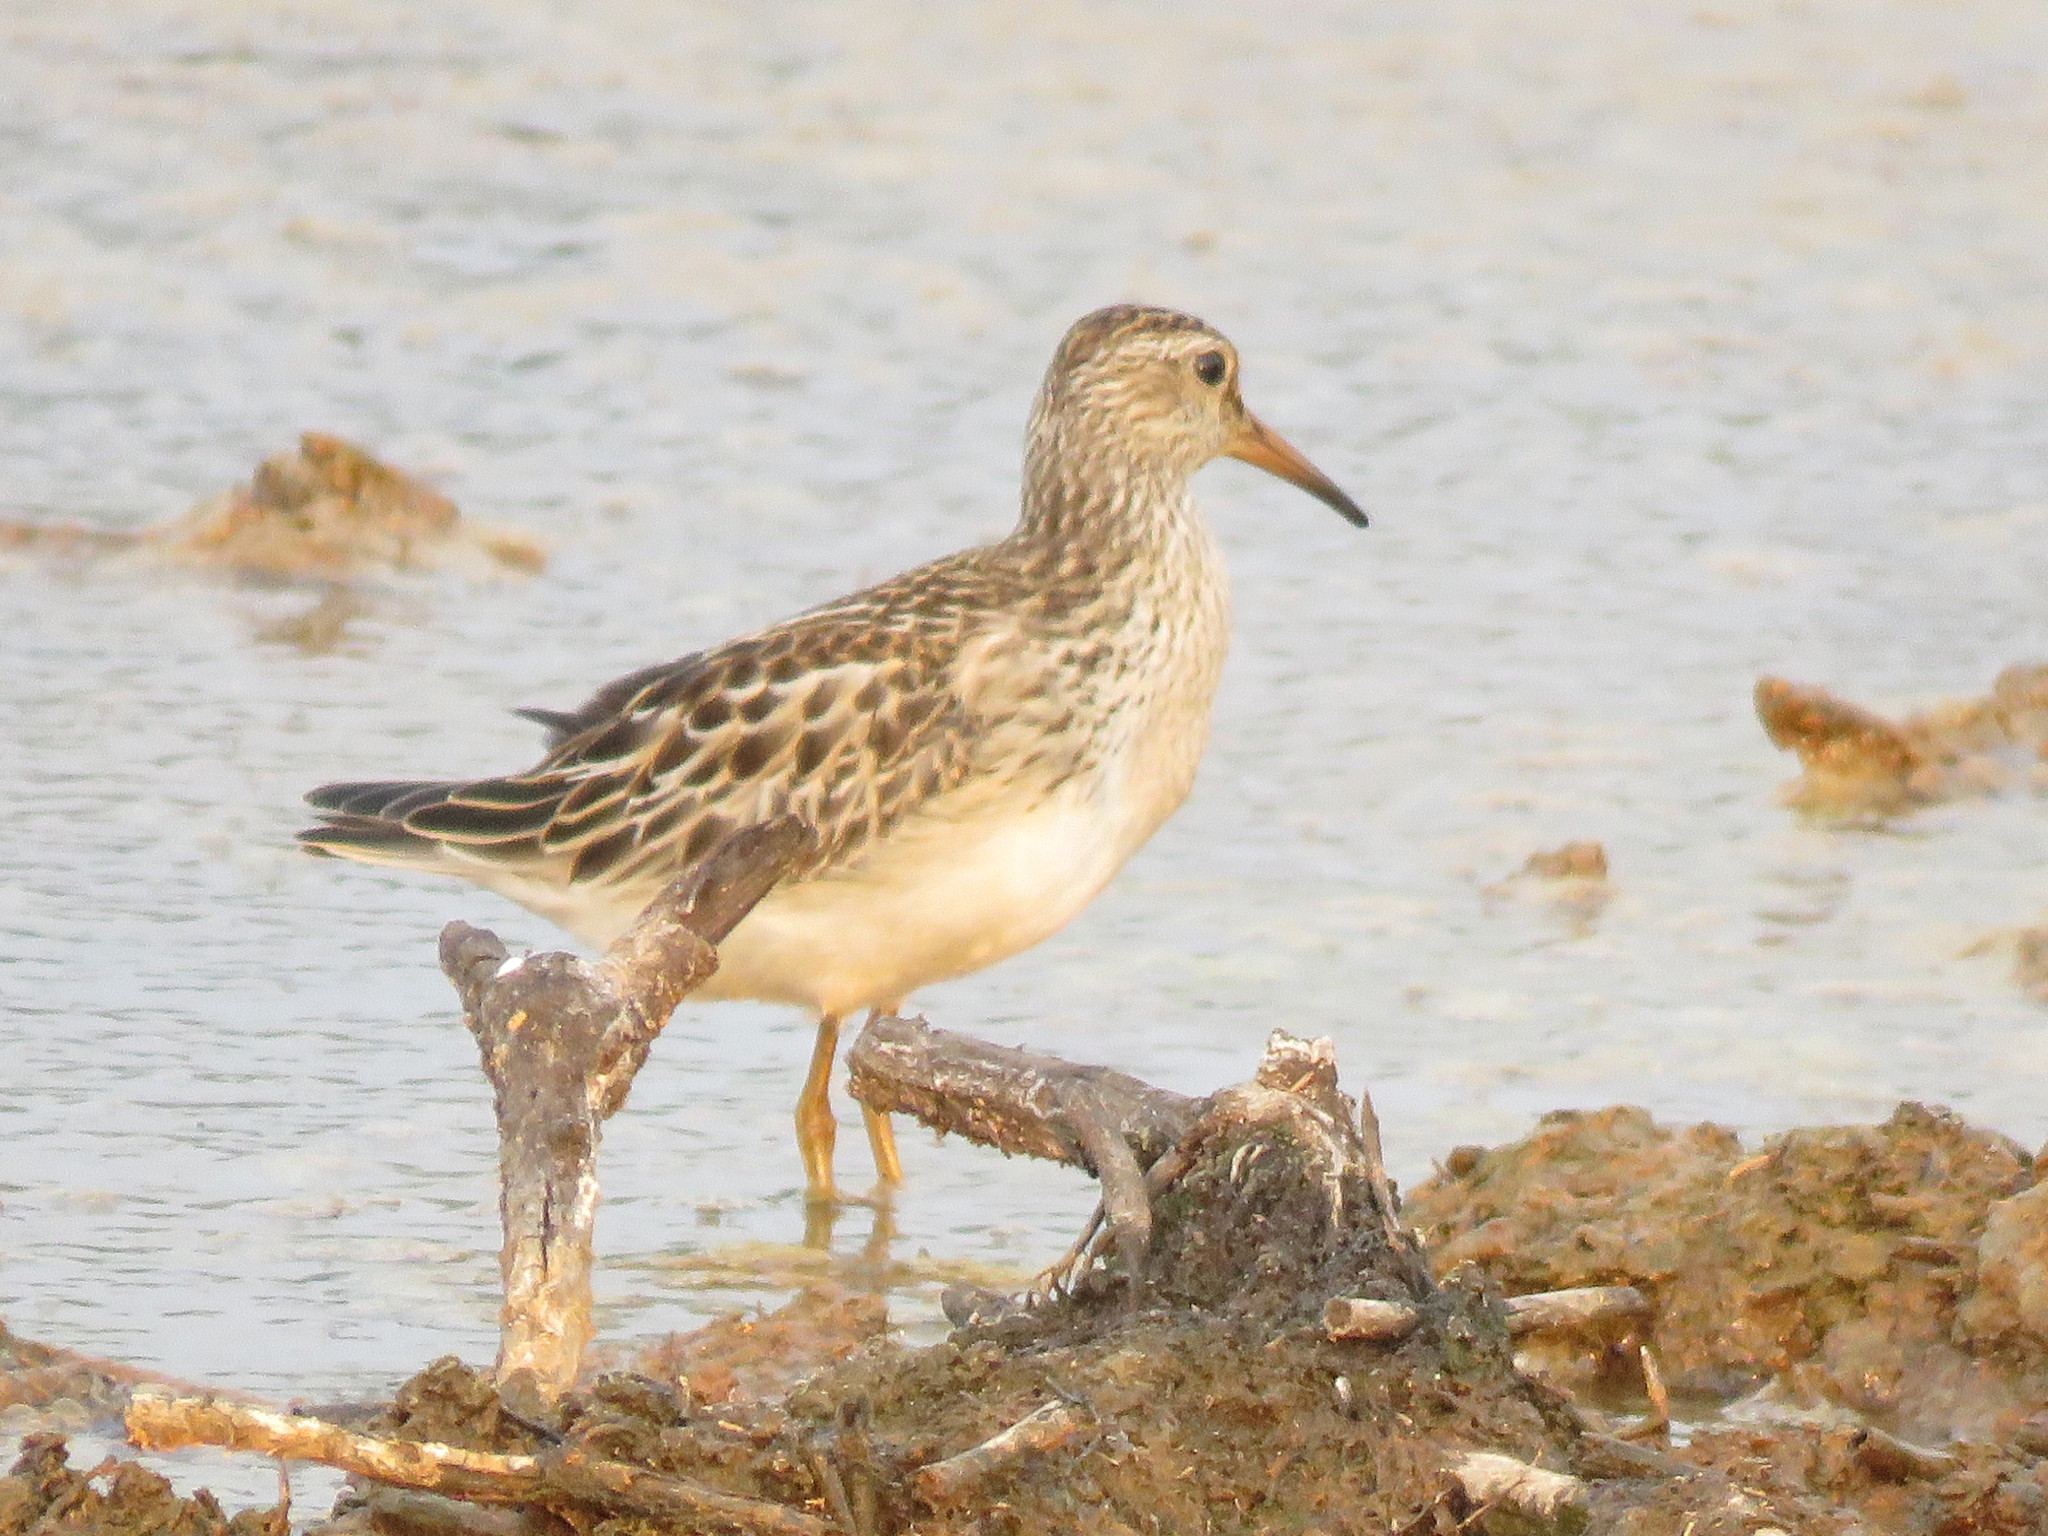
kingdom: Animalia
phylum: Chordata
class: Aves
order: Charadriiformes
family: Scolopacidae
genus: Calidris
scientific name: Calidris melanotos
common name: Pectoral sandpiper
